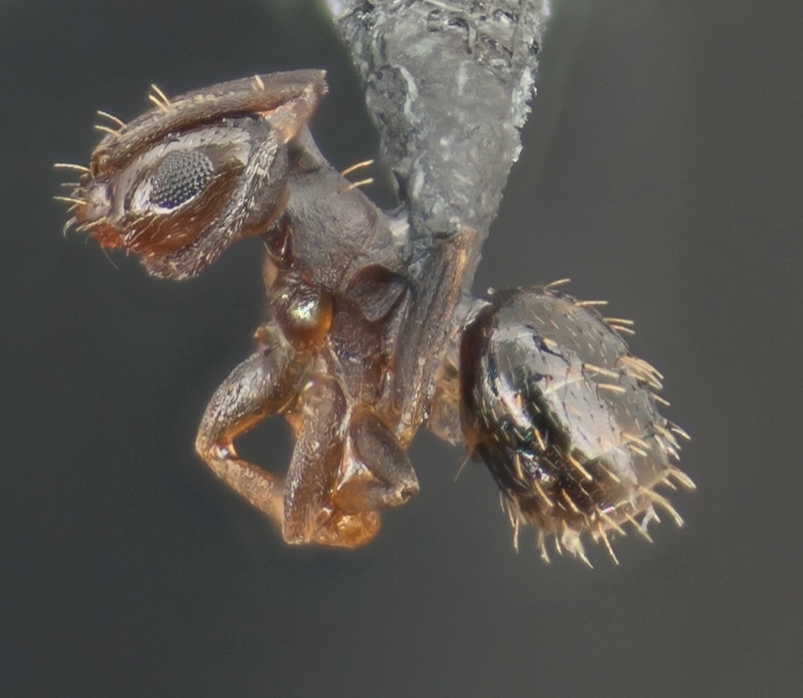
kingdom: Animalia
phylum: Arthropoda
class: Insecta
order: Hymenoptera
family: Formicidae
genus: Brachymyrmex
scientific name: Brachymyrmex patagonicus
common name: Dark rover ant
